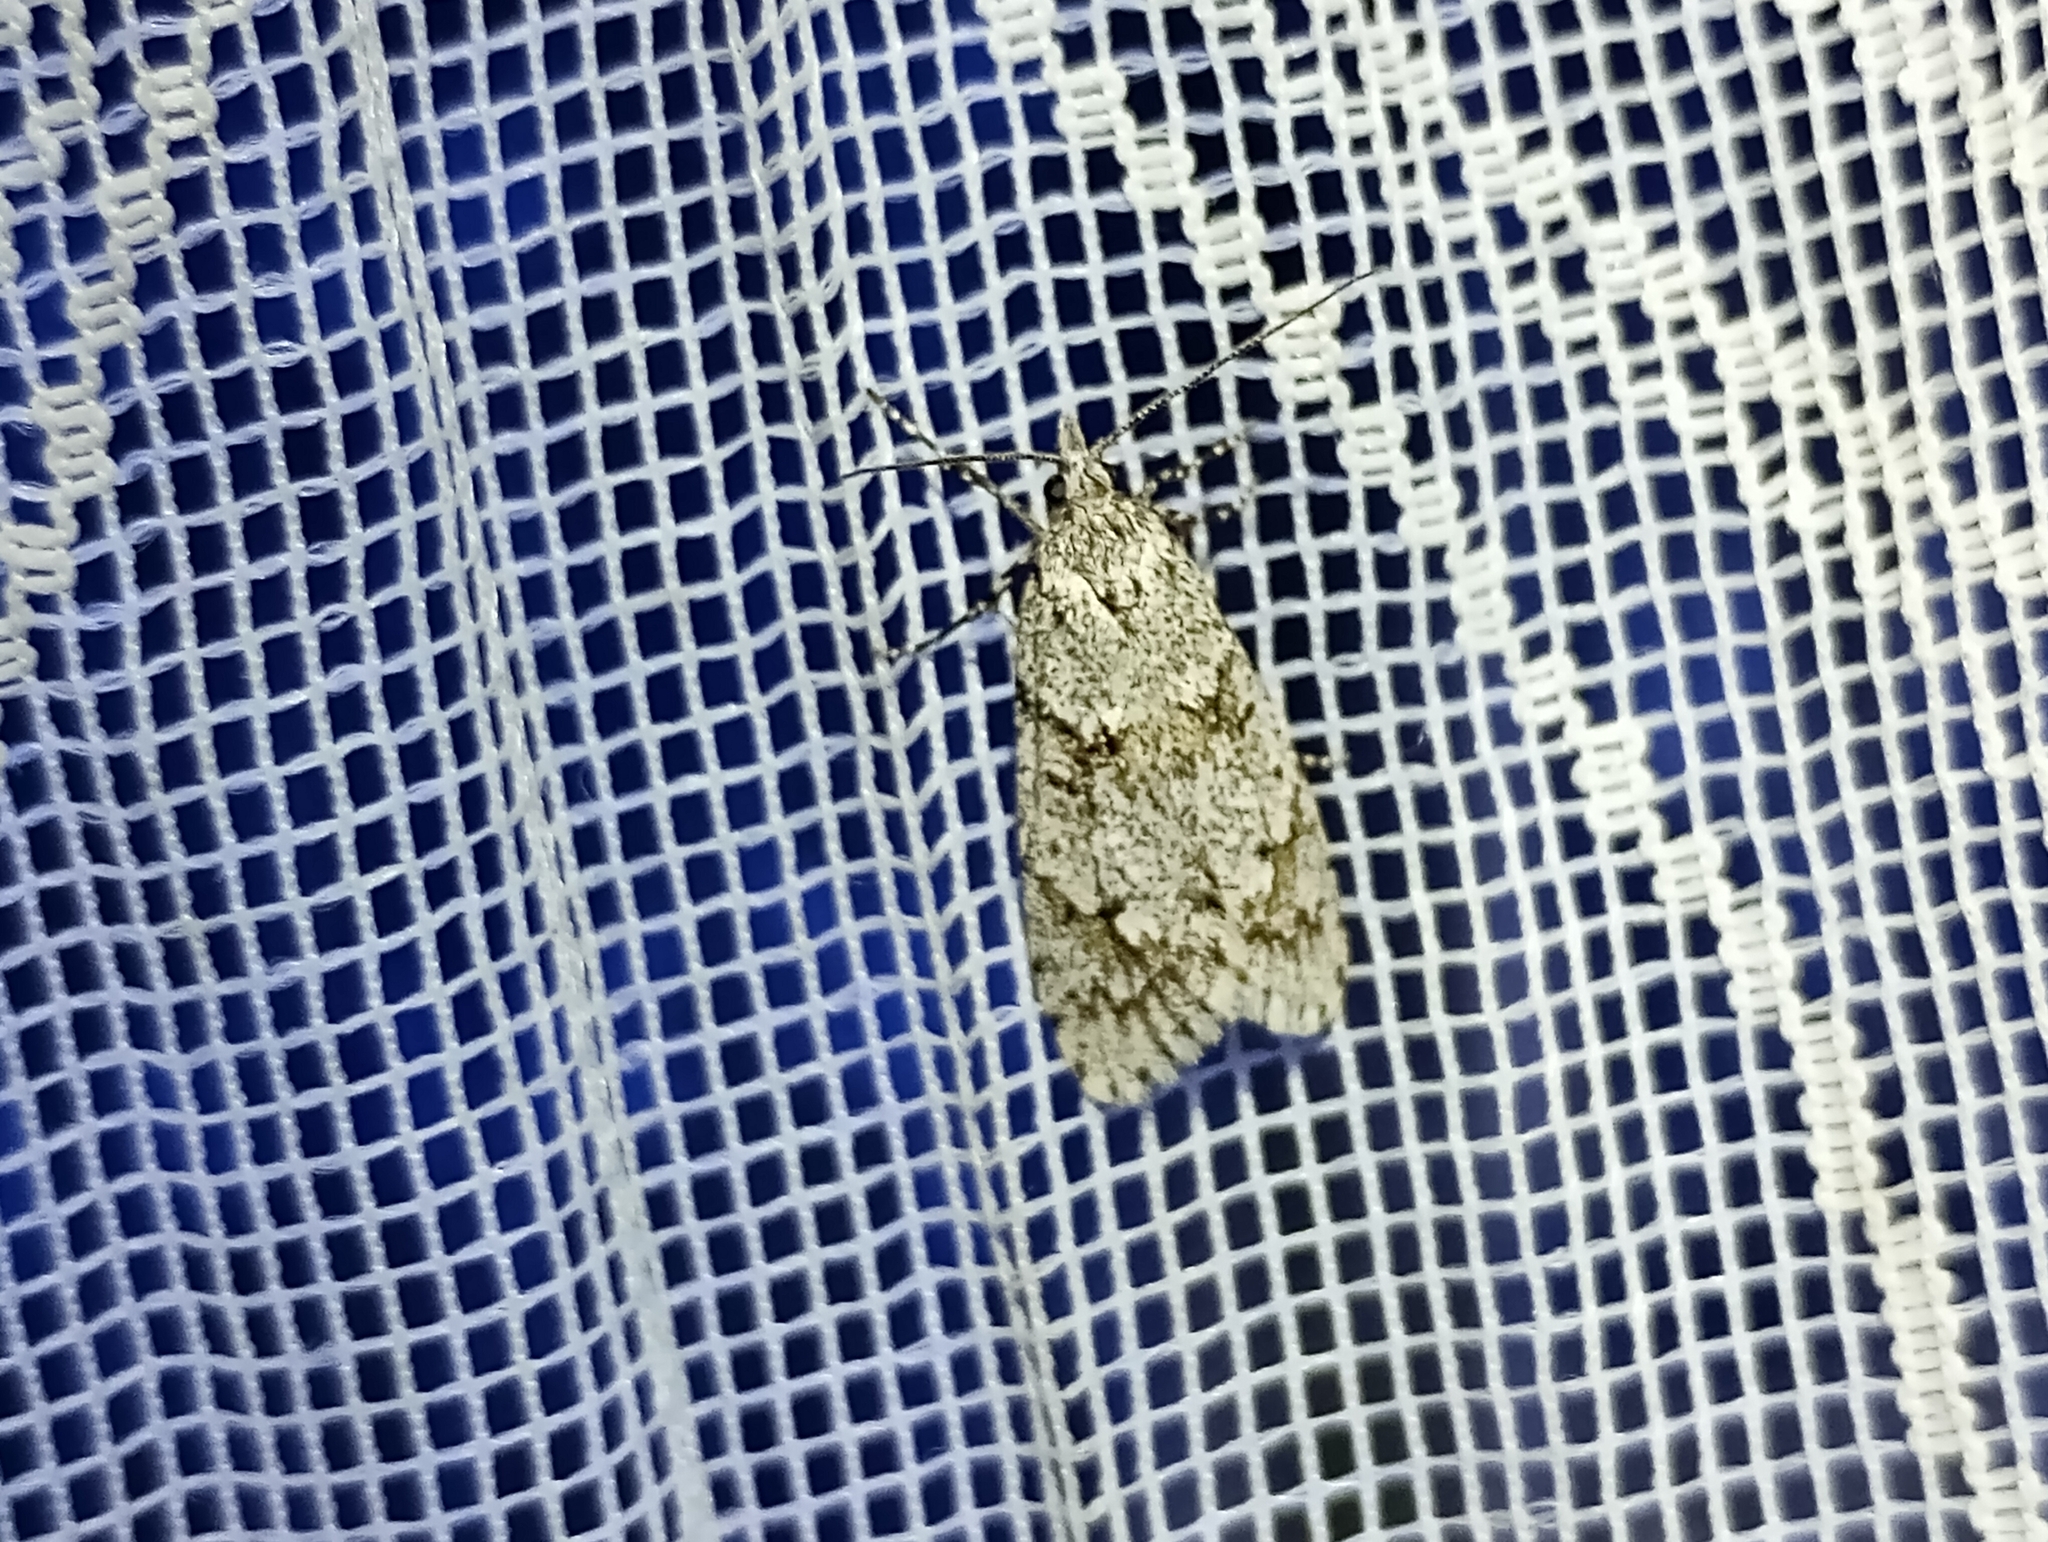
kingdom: Animalia
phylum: Arthropoda
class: Insecta
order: Lepidoptera
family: Lypusidae
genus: Diurnea
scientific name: Diurnea fagella
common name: March tubic
